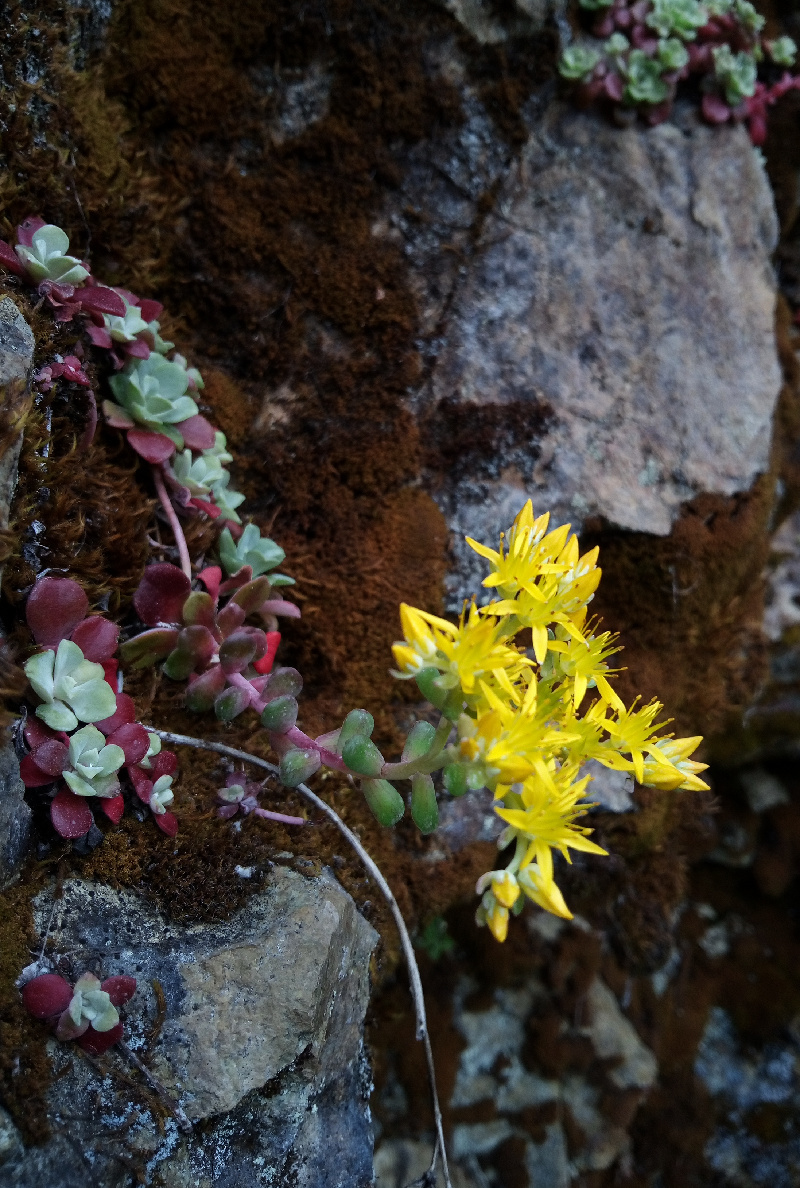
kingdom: Plantae
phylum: Tracheophyta
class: Magnoliopsida
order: Saxifragales
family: Crassulaceae
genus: Sedum
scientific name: Sedum spathulifolium
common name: Colorado stonecrop
